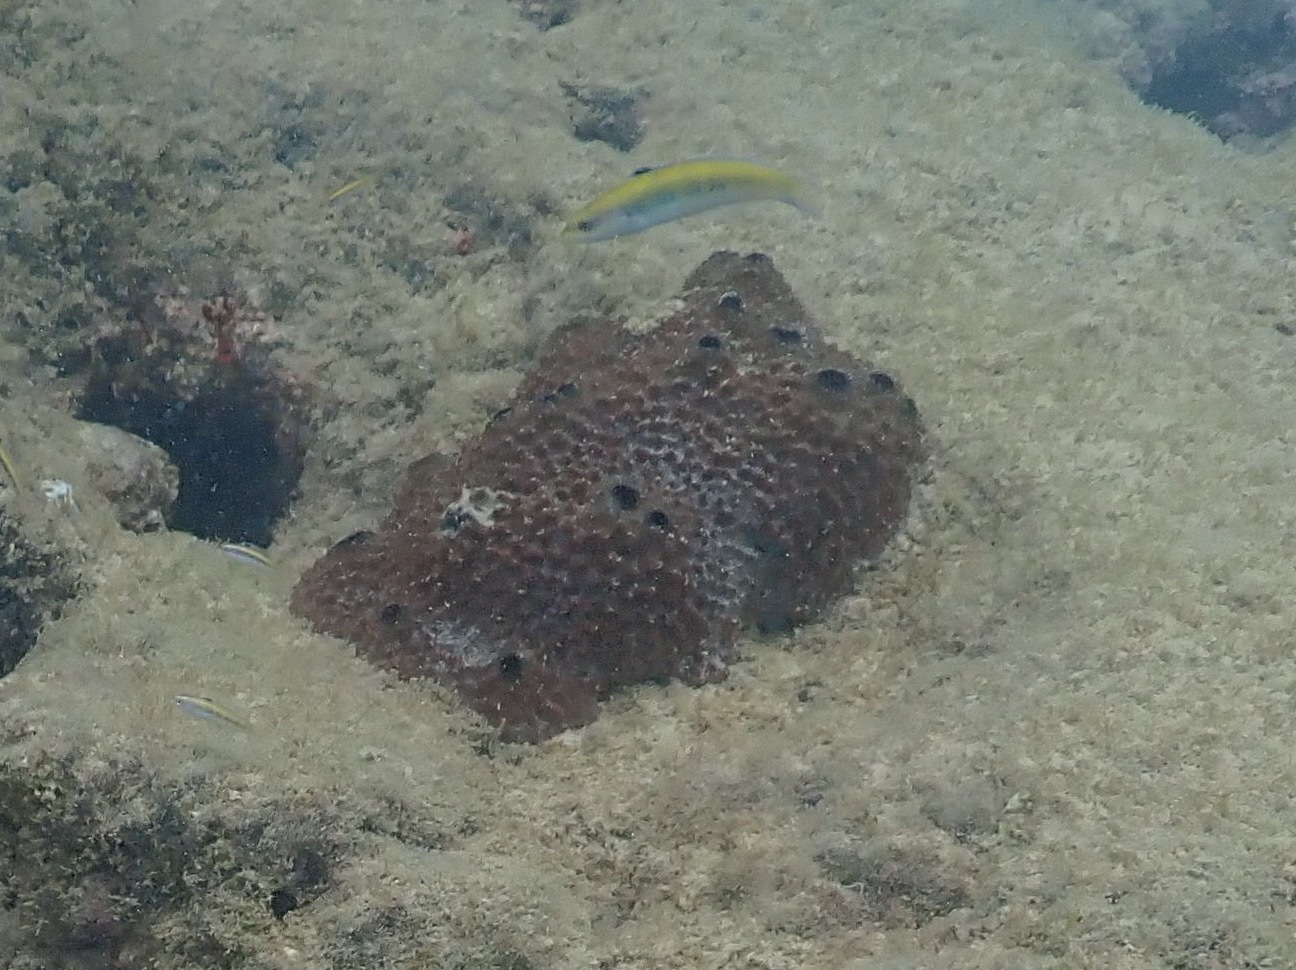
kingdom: Animalia
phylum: Porifera
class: Demospongiae
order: Dictyoceratida
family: Irciniidae
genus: Ircinia
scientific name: Ircinia felix
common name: Stinker sponge
